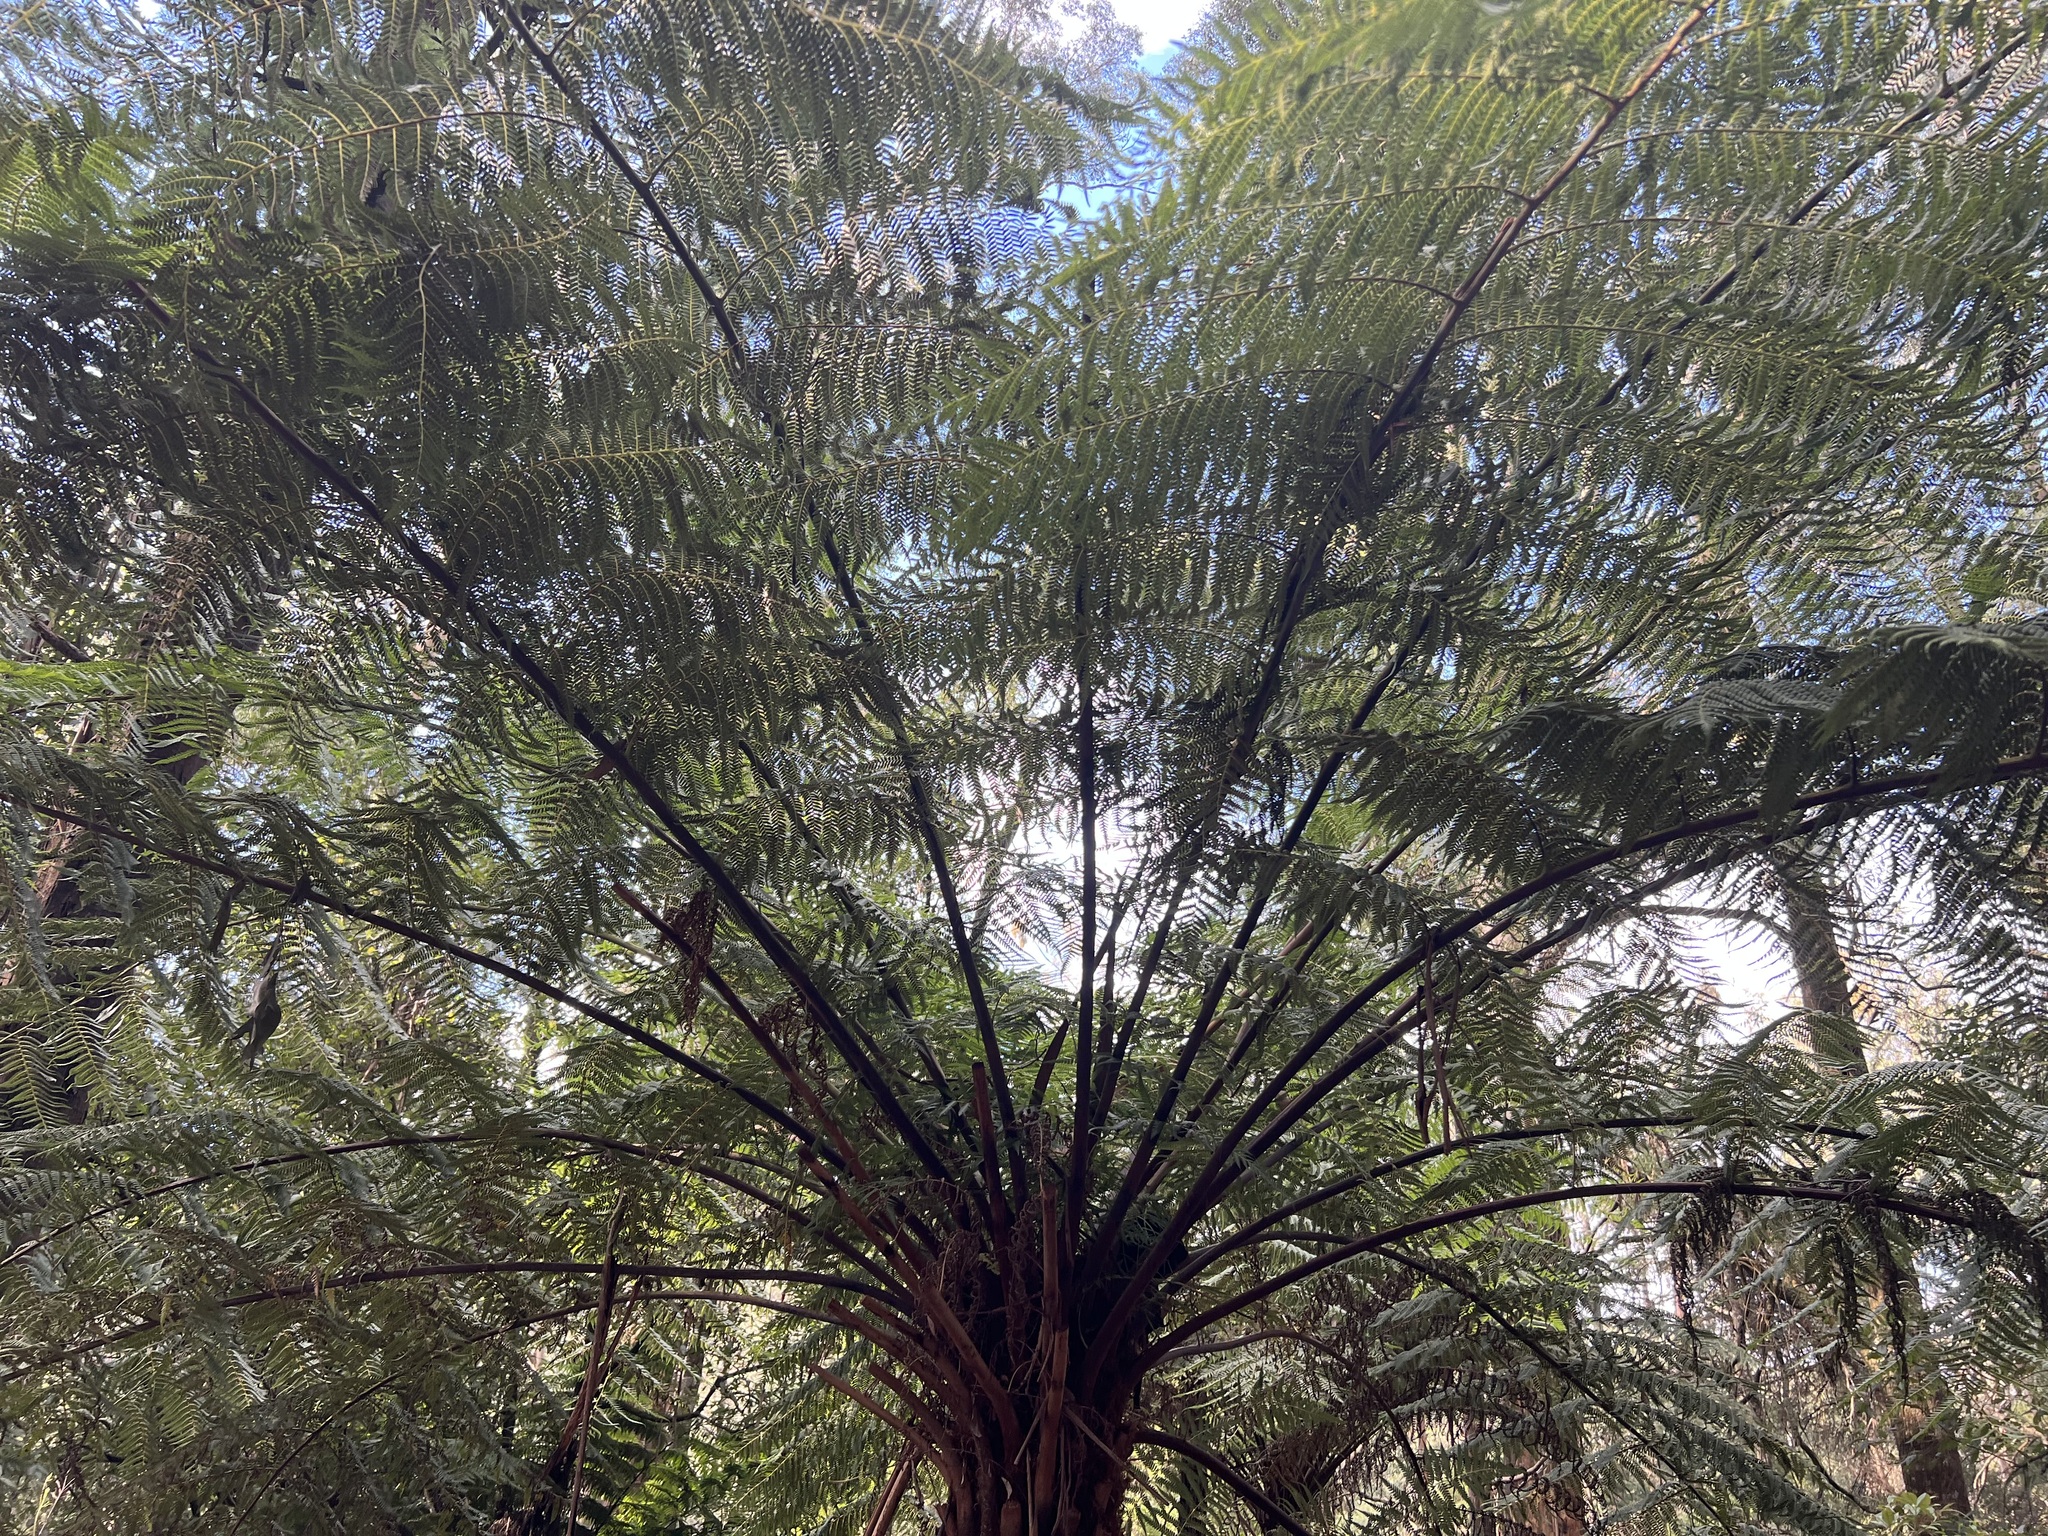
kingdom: Plantae
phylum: Tracheophyta
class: Polypodiopsida
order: Cyatheales
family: Cyatheaceae
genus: Alsophila
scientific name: Alsophila australis
